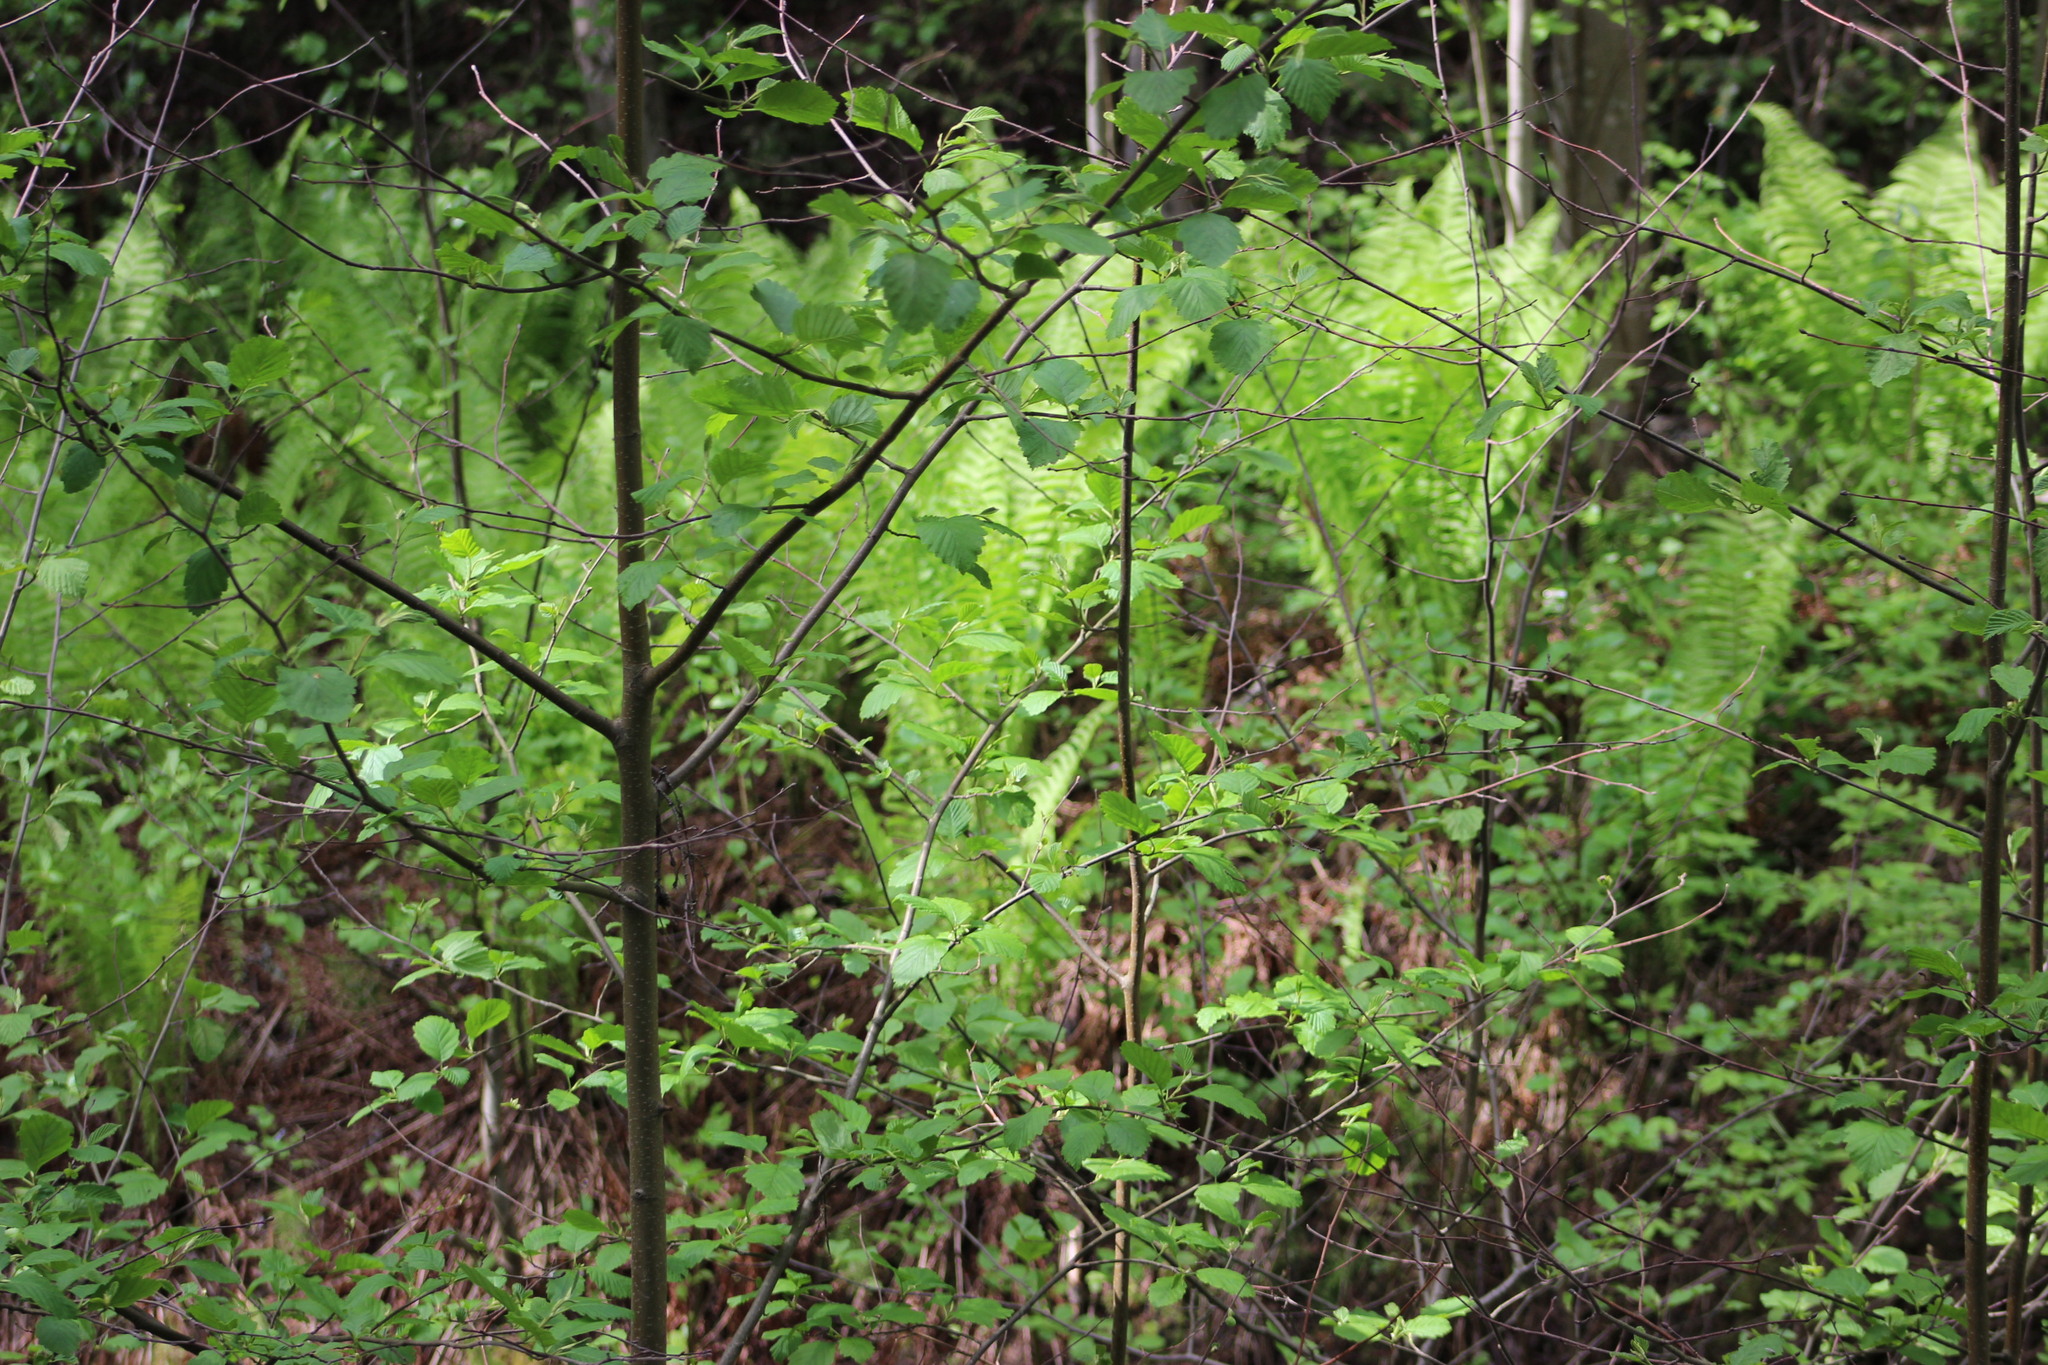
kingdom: Plantae
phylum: Tracheophyta
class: Polypodiopsida
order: Polypodiales
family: Onocleaceae
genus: Matteuccia
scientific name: Matteuccia struthiopteris
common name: Ostrich fern
